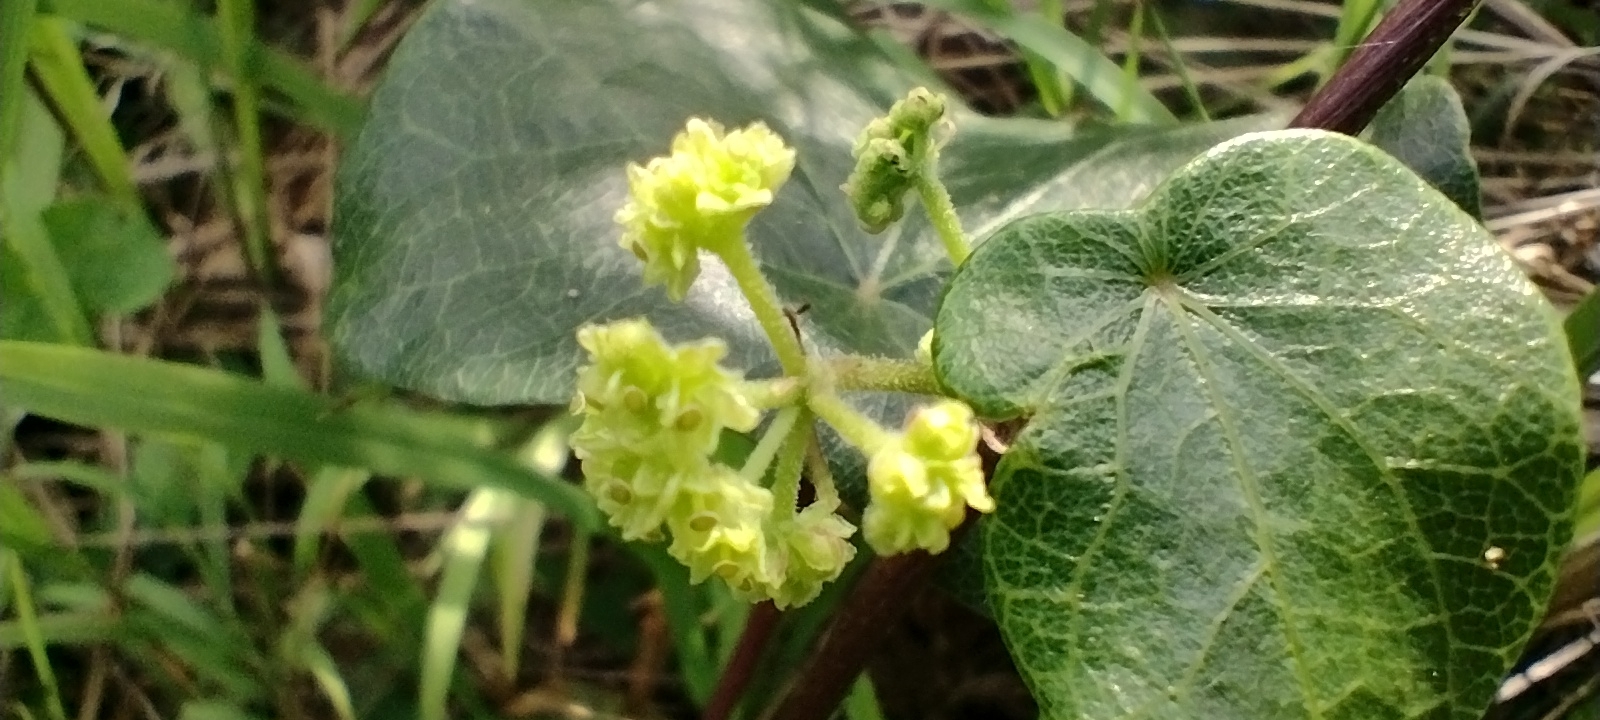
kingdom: Plantae
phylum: Tracheophyta
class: Magnoliopsida
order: Ranunculales
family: Menispermaceae
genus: Stephania
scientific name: Stephania japonica
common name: Snake vine
